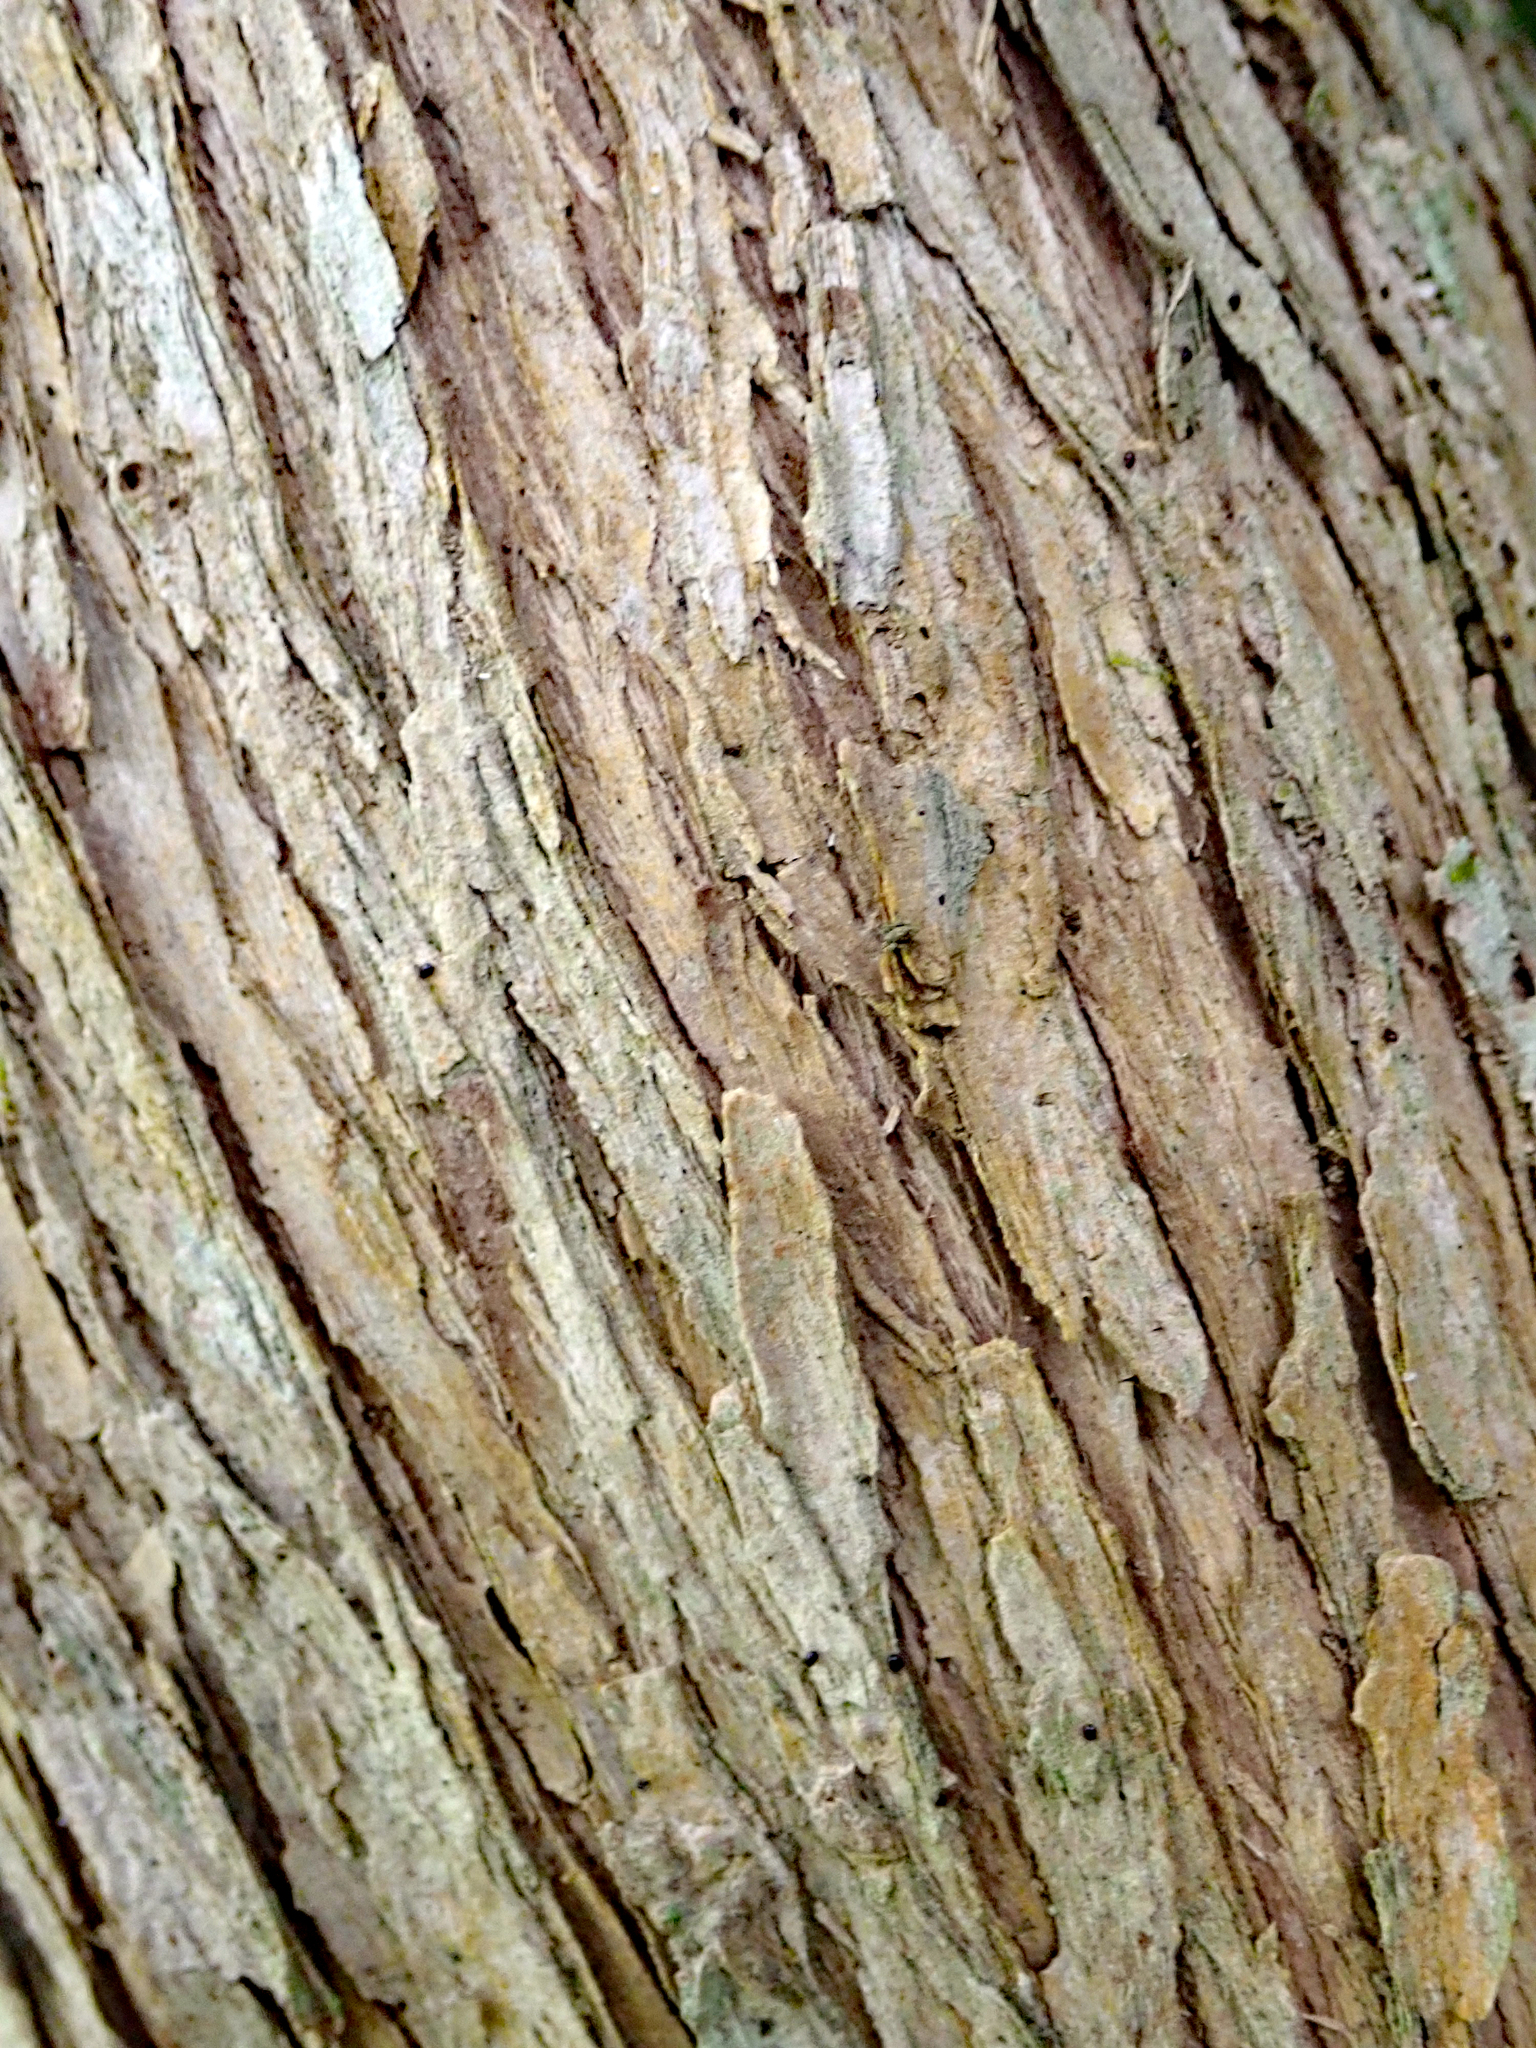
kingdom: Plantae
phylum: Tracheophyta
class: Magnoliopsida
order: Asterales
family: Asteraceae
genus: Brachyglottis
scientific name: Brachyglottis huntii
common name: Chatham island christmas tree
